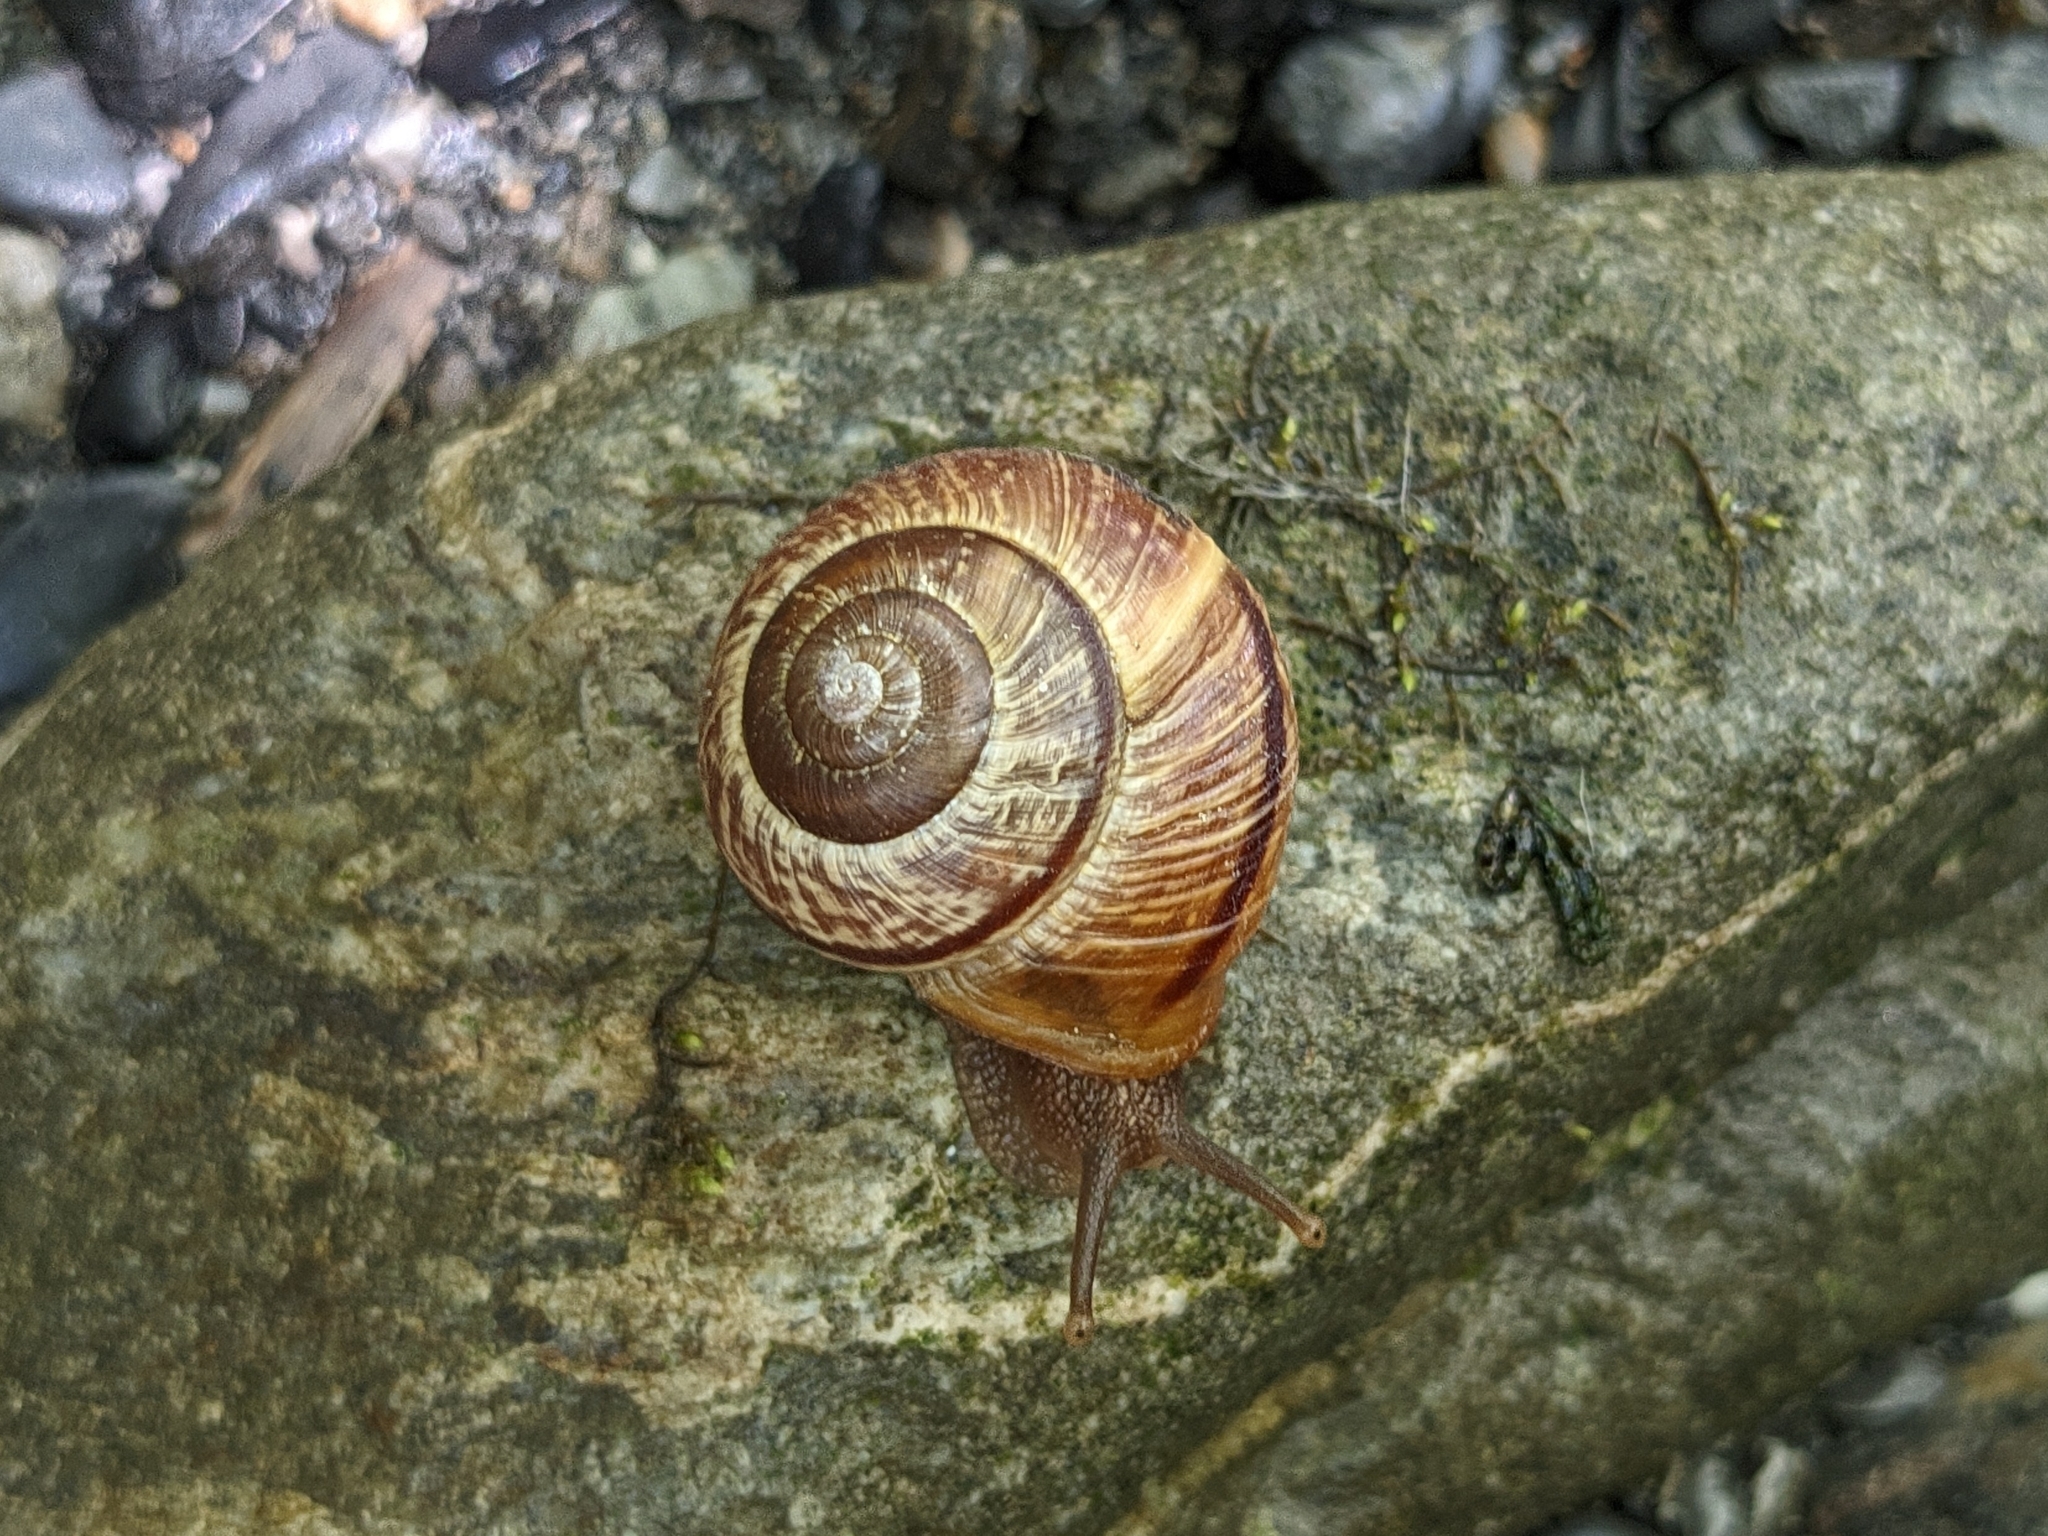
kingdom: Animalia
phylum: Mollusca
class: Gastropoda
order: Stylommatophora
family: Helicidae
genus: Arianta
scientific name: Arianta arbustorum
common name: Copse snail
